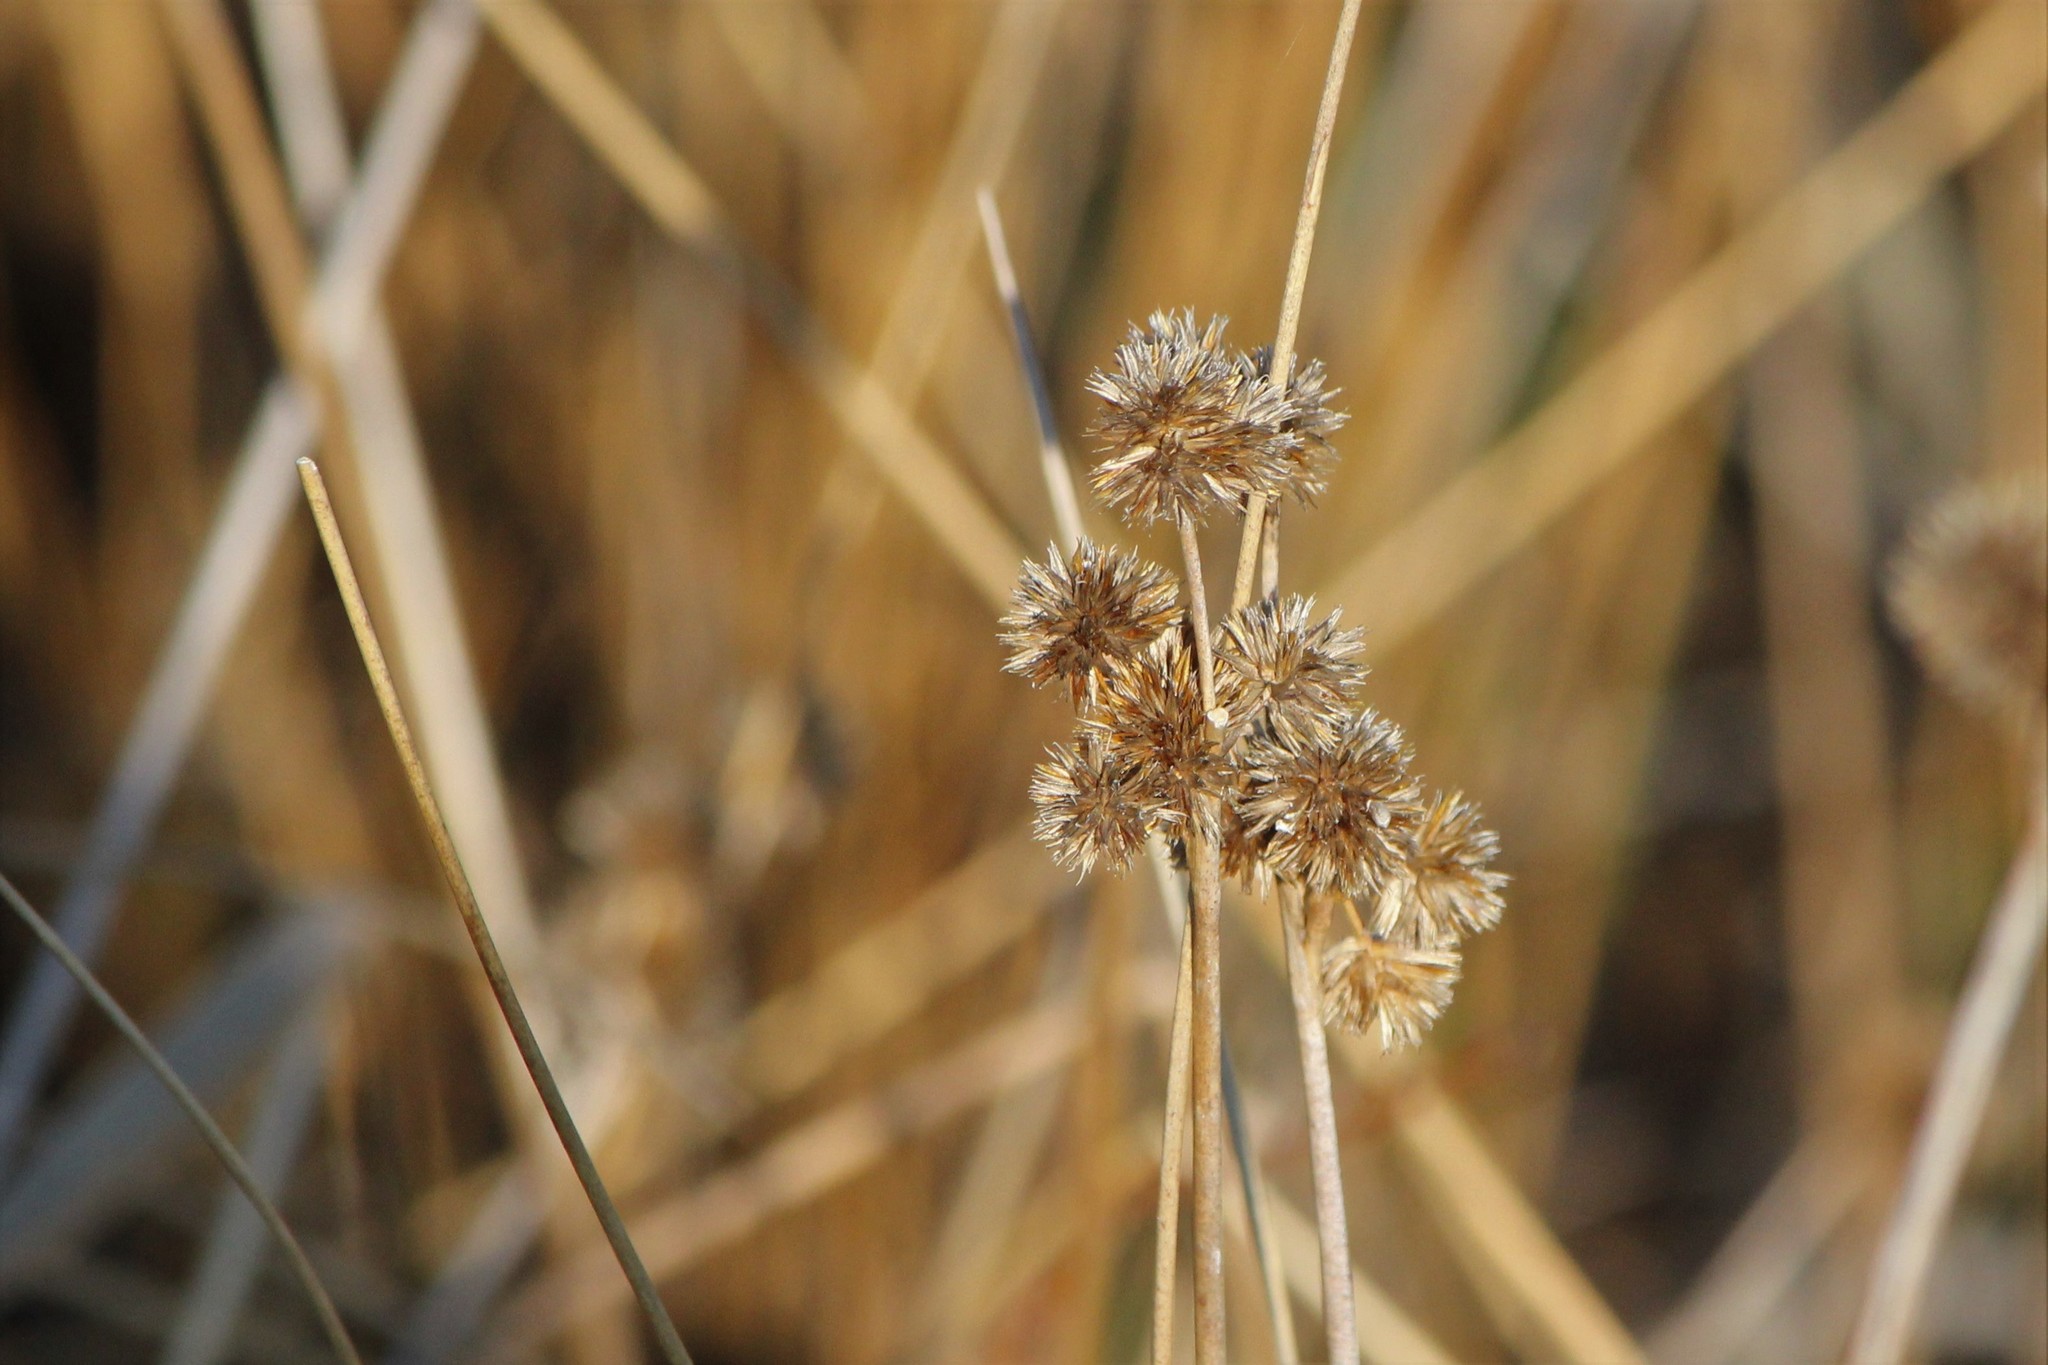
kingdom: Plantae
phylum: Tracheophyta
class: Liliopsida
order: Poales
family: Juncaceae
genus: Juncus
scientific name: Juncus torreyi
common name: Torrey's rush
